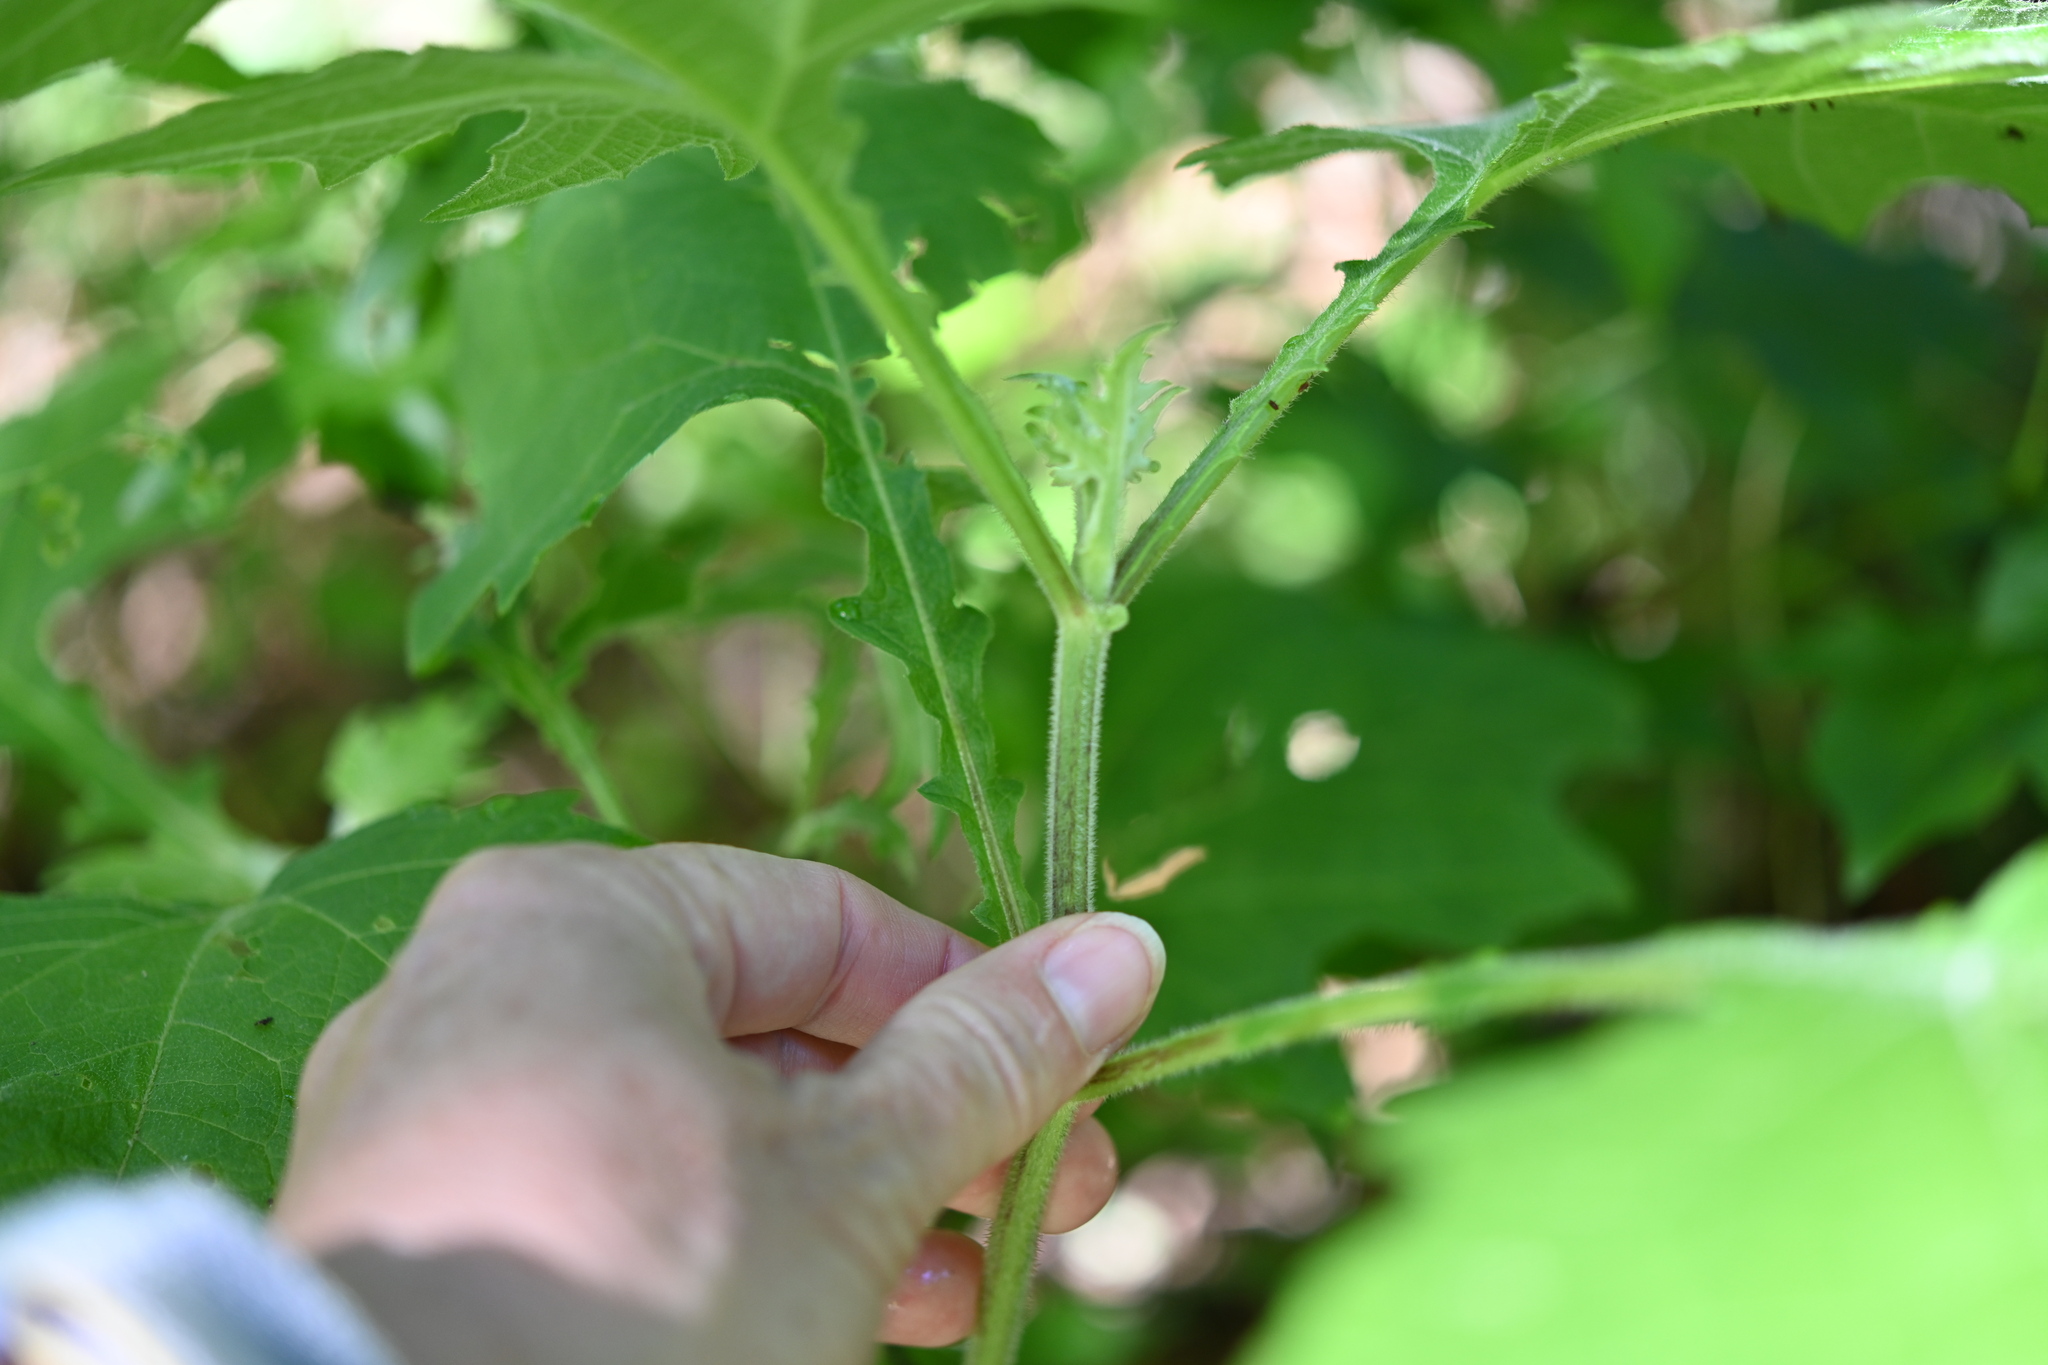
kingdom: Plantae
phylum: Tracheophyta
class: Magnoliopsida
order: Asterales
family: Asteraceae
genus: Smallanthus
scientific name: Smallanthus uvedalia
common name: Bear's-foot
